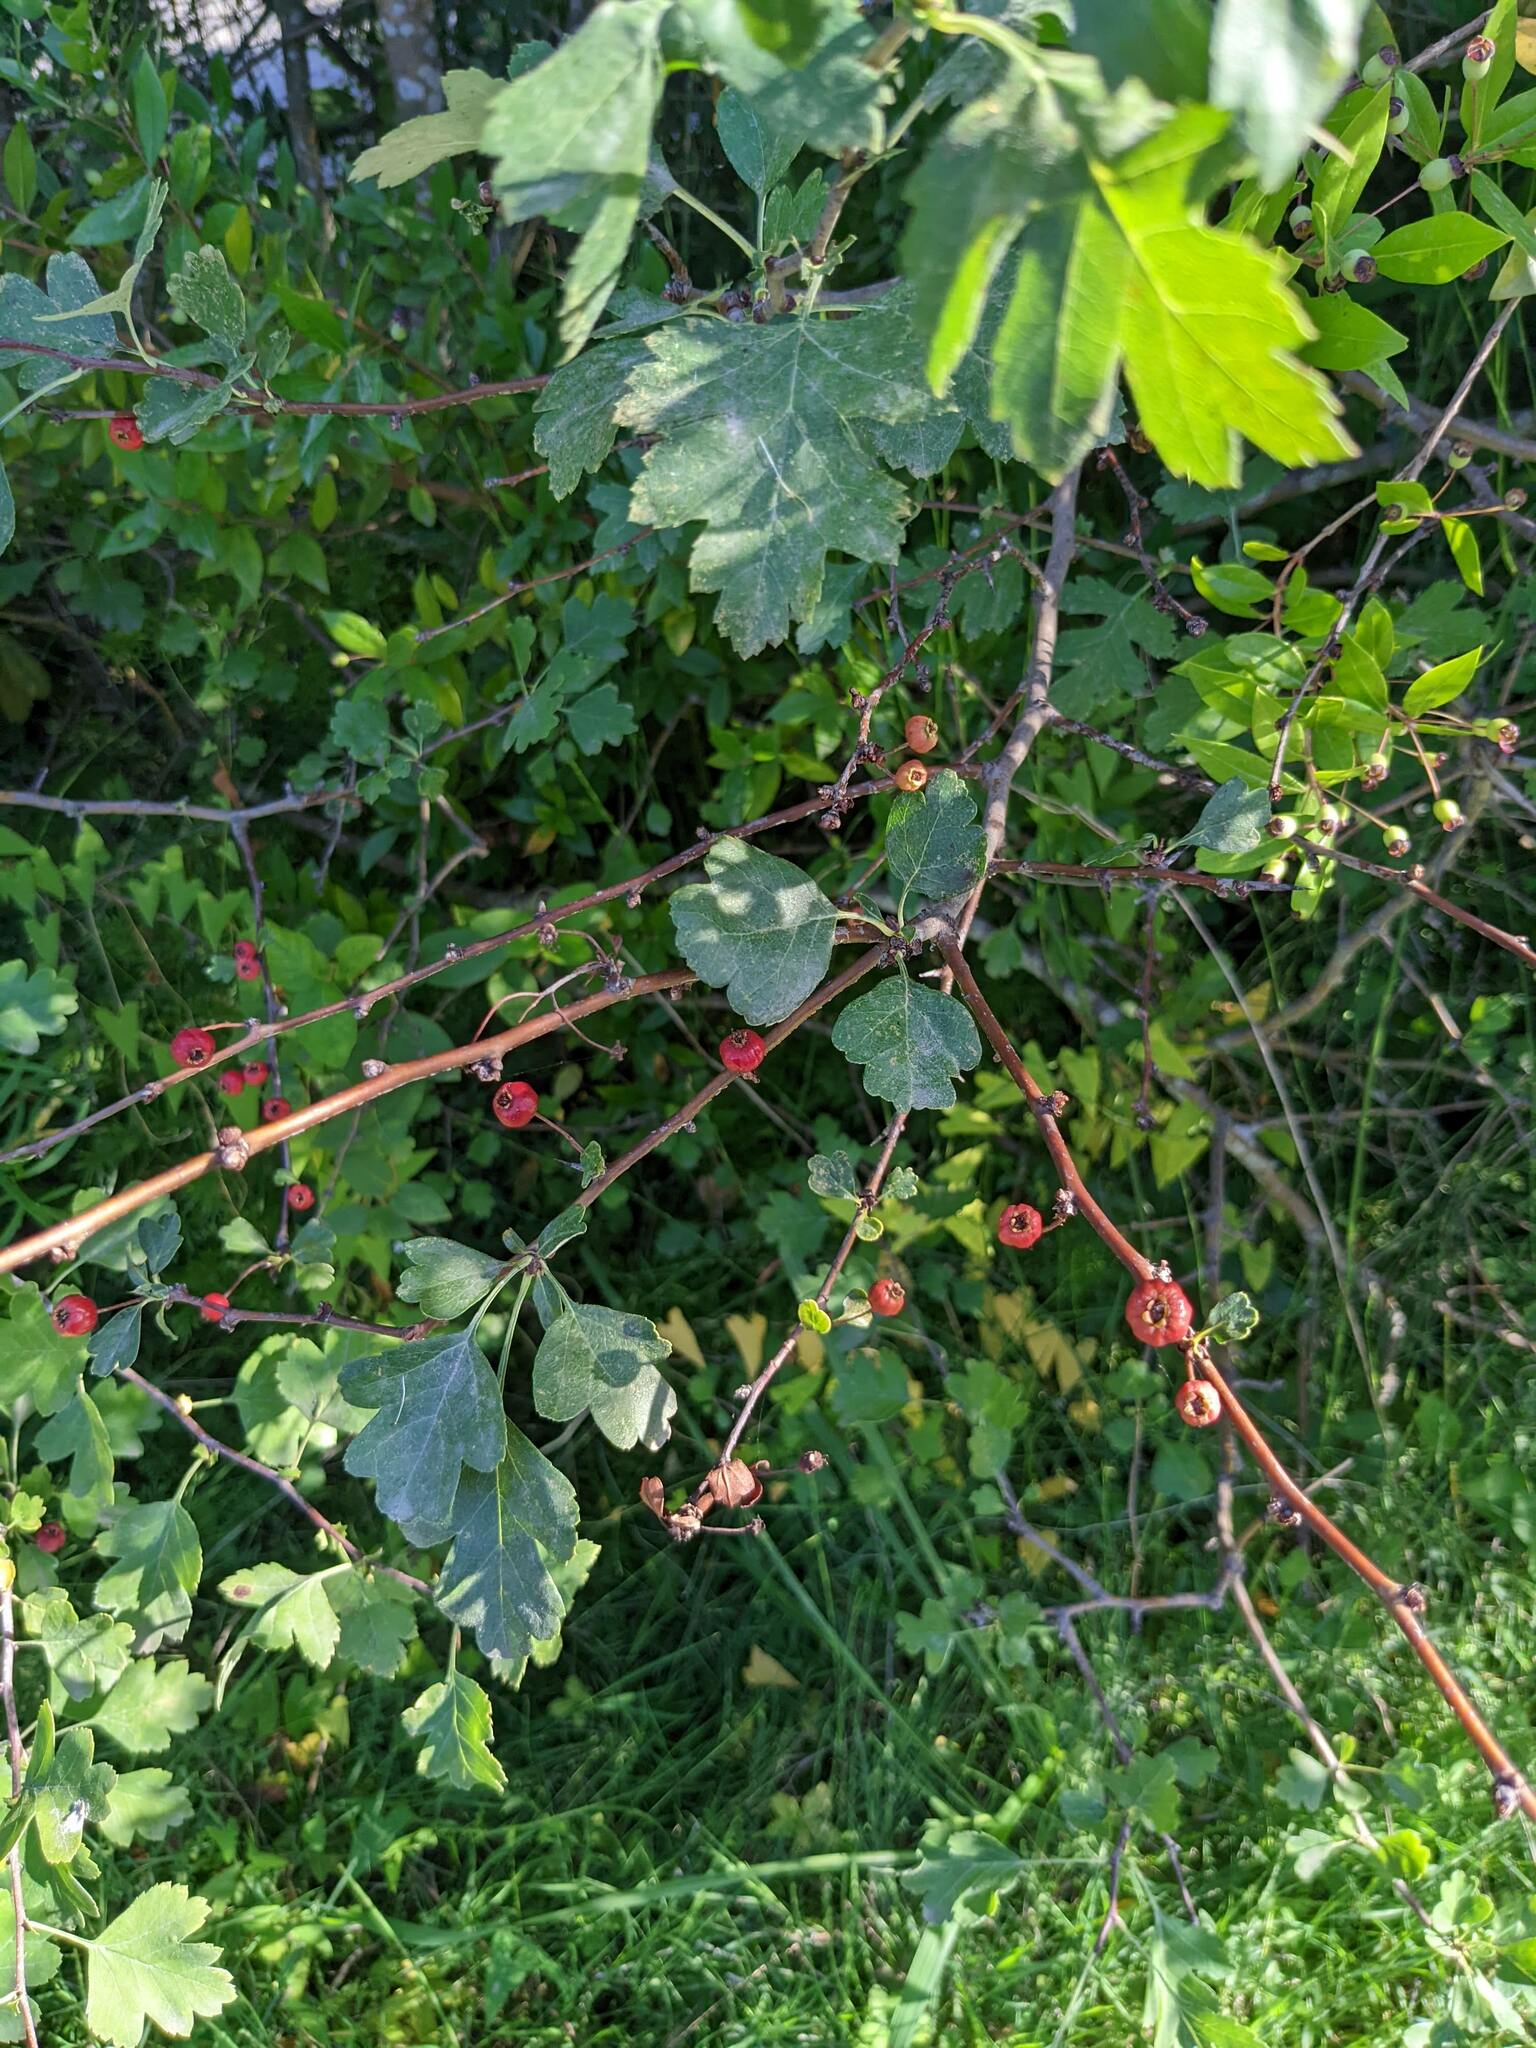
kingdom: Plantae
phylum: Tracheophyta
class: Magnoliopsida
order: Rosales
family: Rosaceae
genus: Crataegus
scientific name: Crataegus monogyna
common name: Hawthorn
